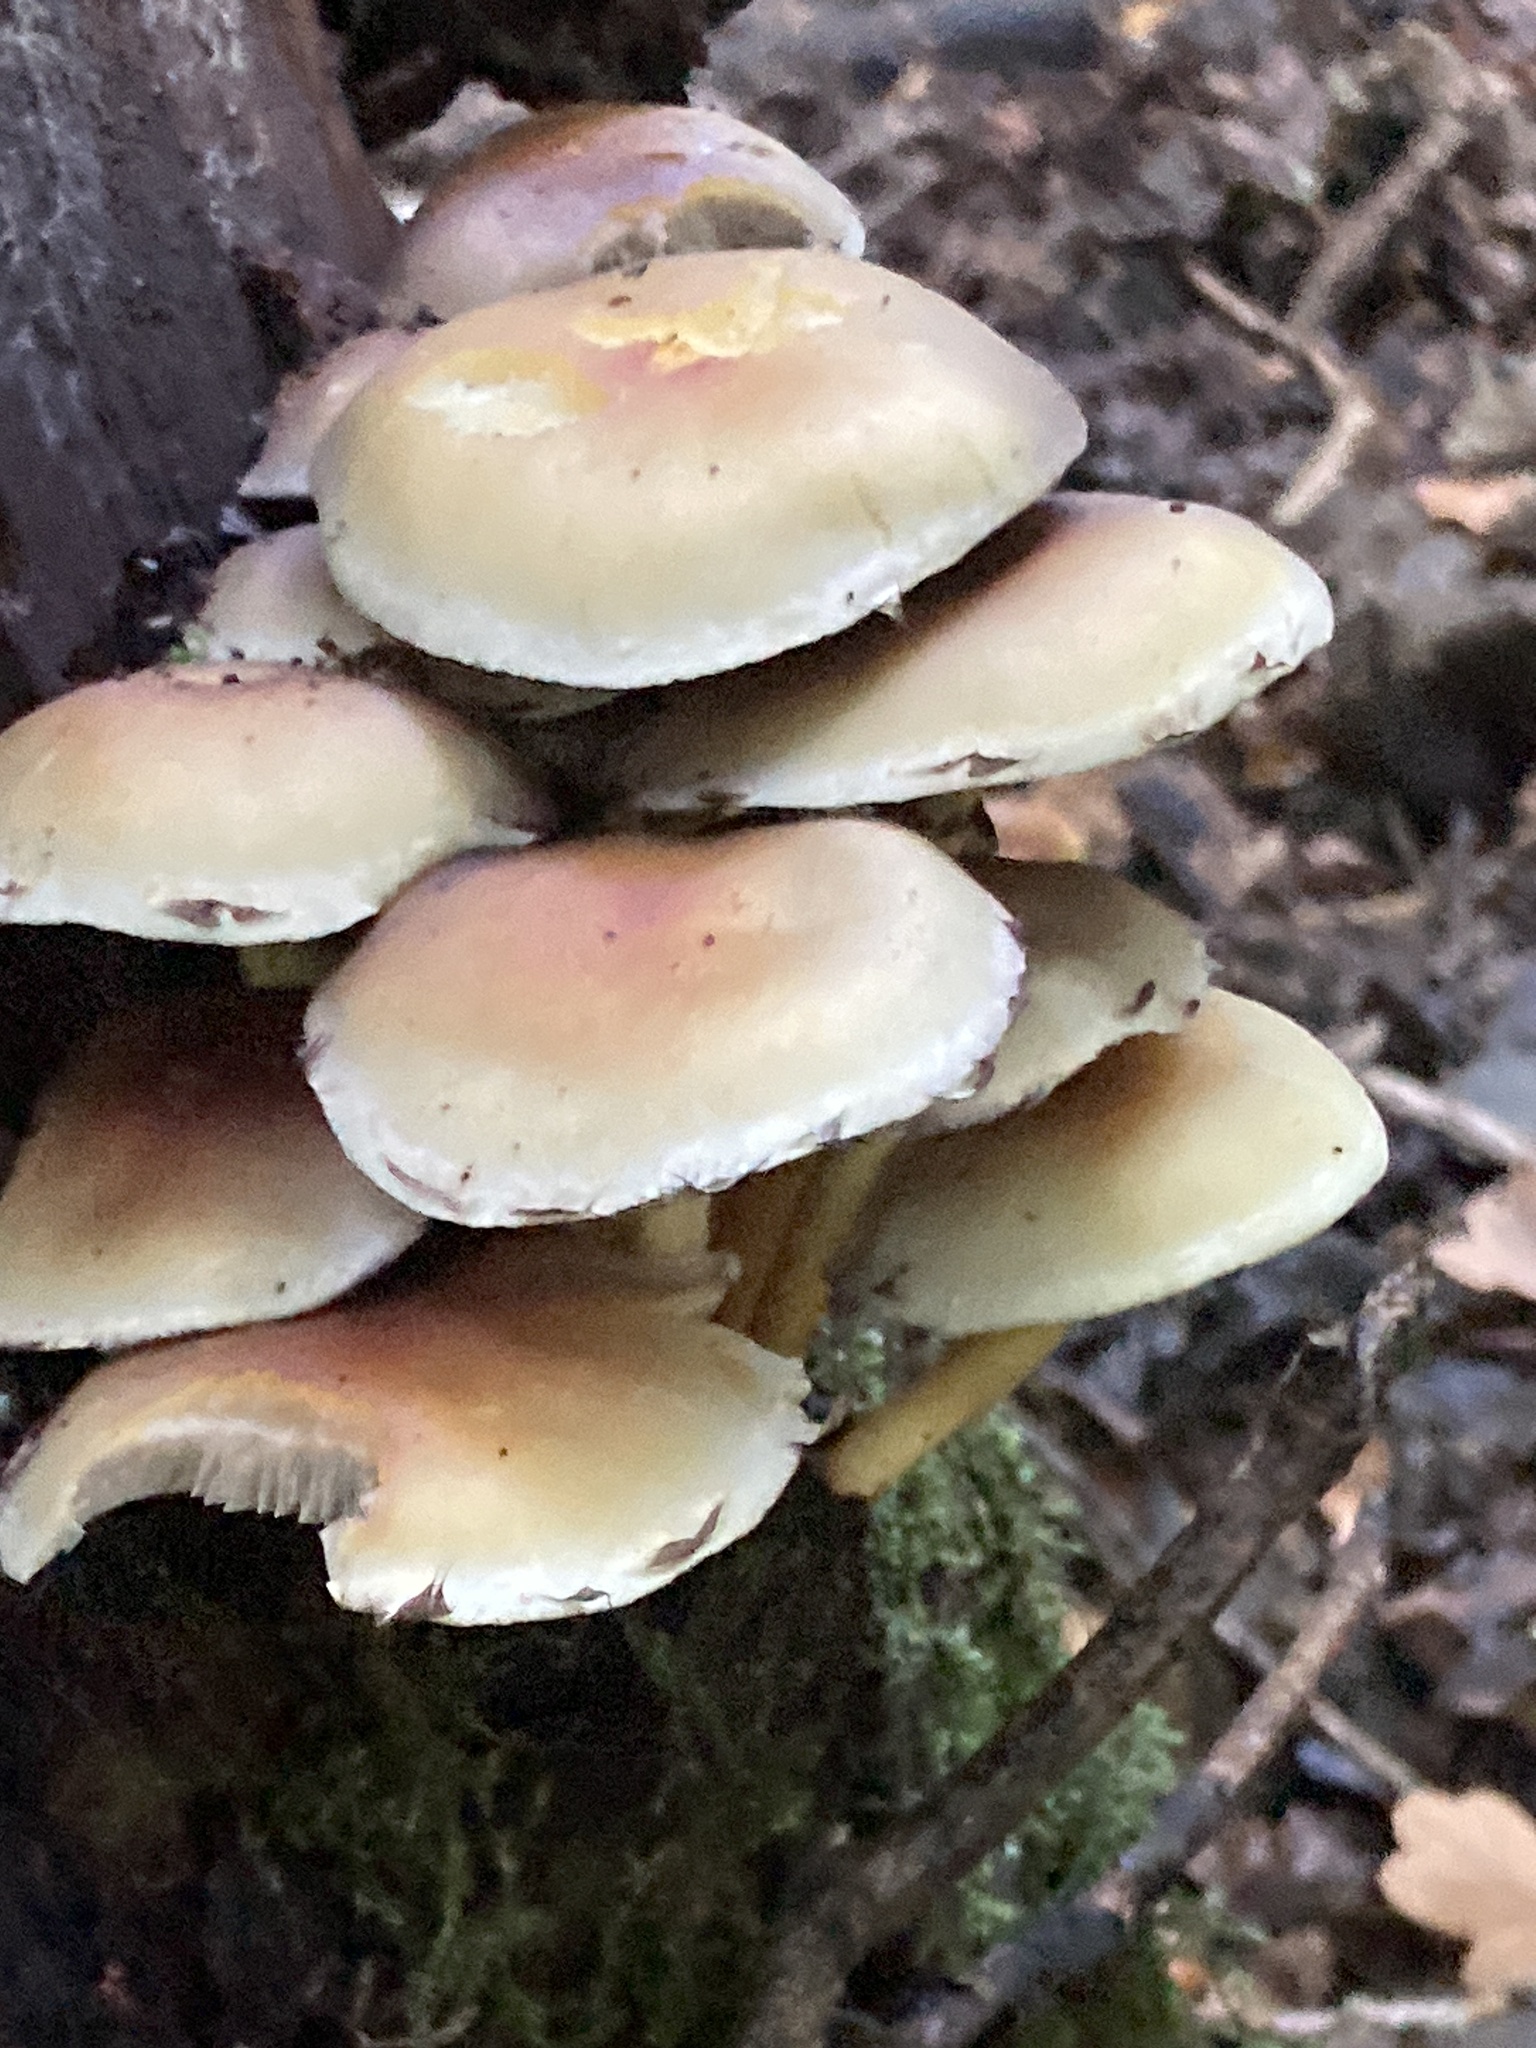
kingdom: Fungi
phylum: Basidiomycota
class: Agaricomycetes
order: Agaricales
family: Strophariaceae
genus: Hypholoma
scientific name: Hypholoma fasciculare
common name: Sulphur tuft
